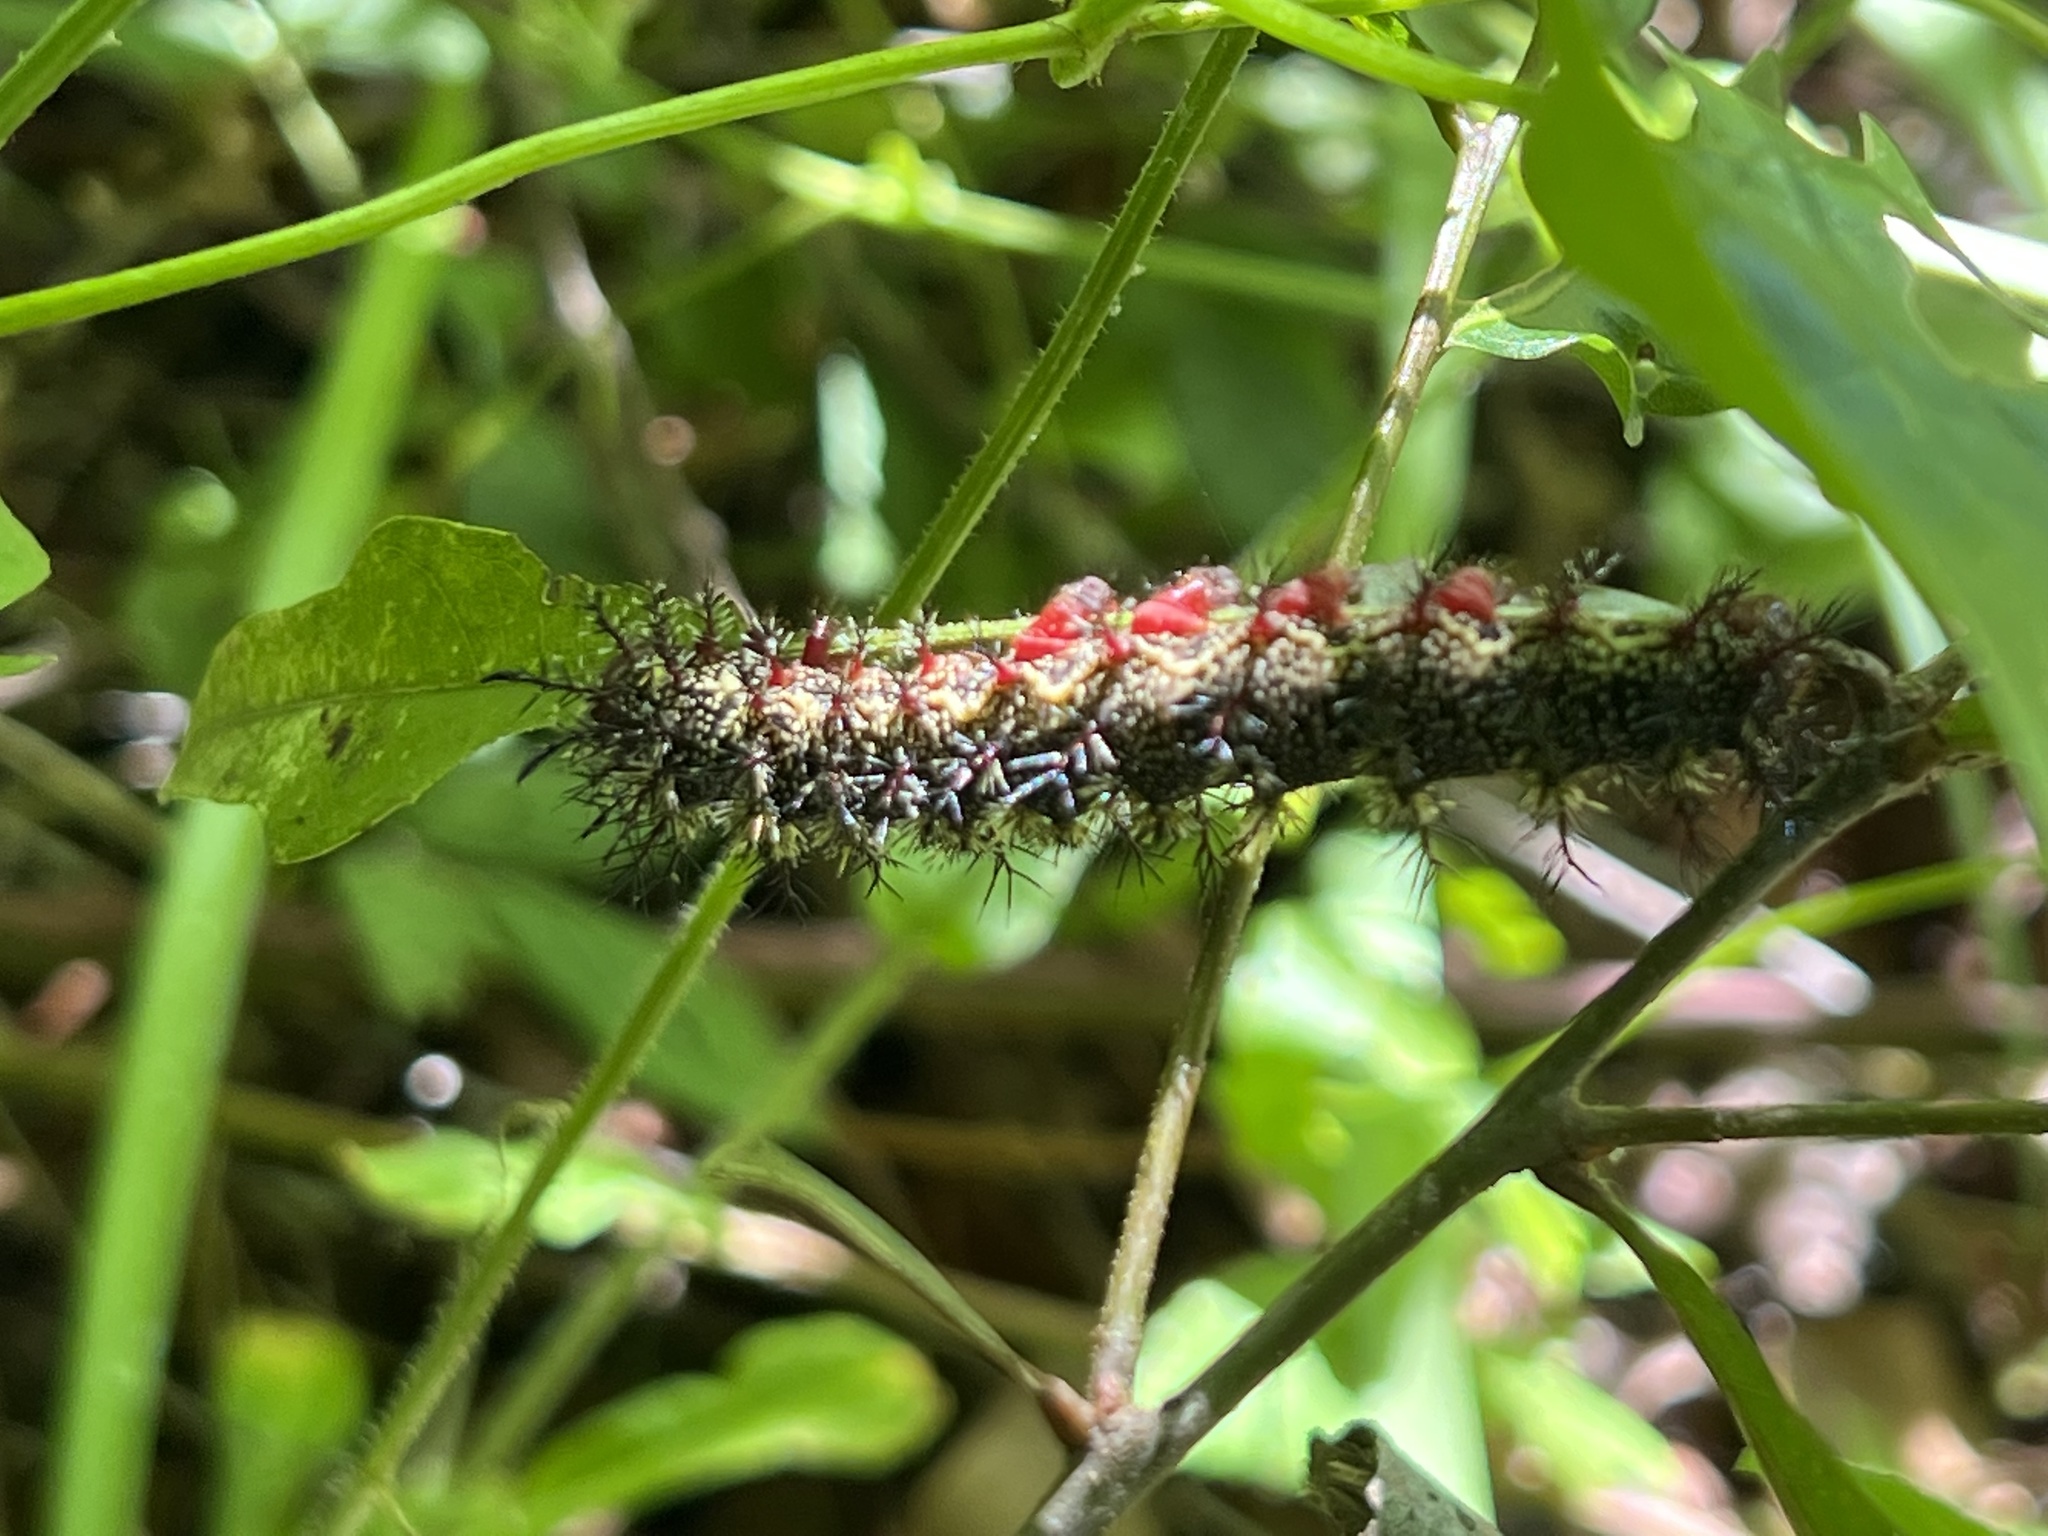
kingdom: Animalia
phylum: Arthropoda
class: Insecta
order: Lepidoptera
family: Saturniidae
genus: Hemileuca
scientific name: Hemileuca maia
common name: Eastern buckmoth
